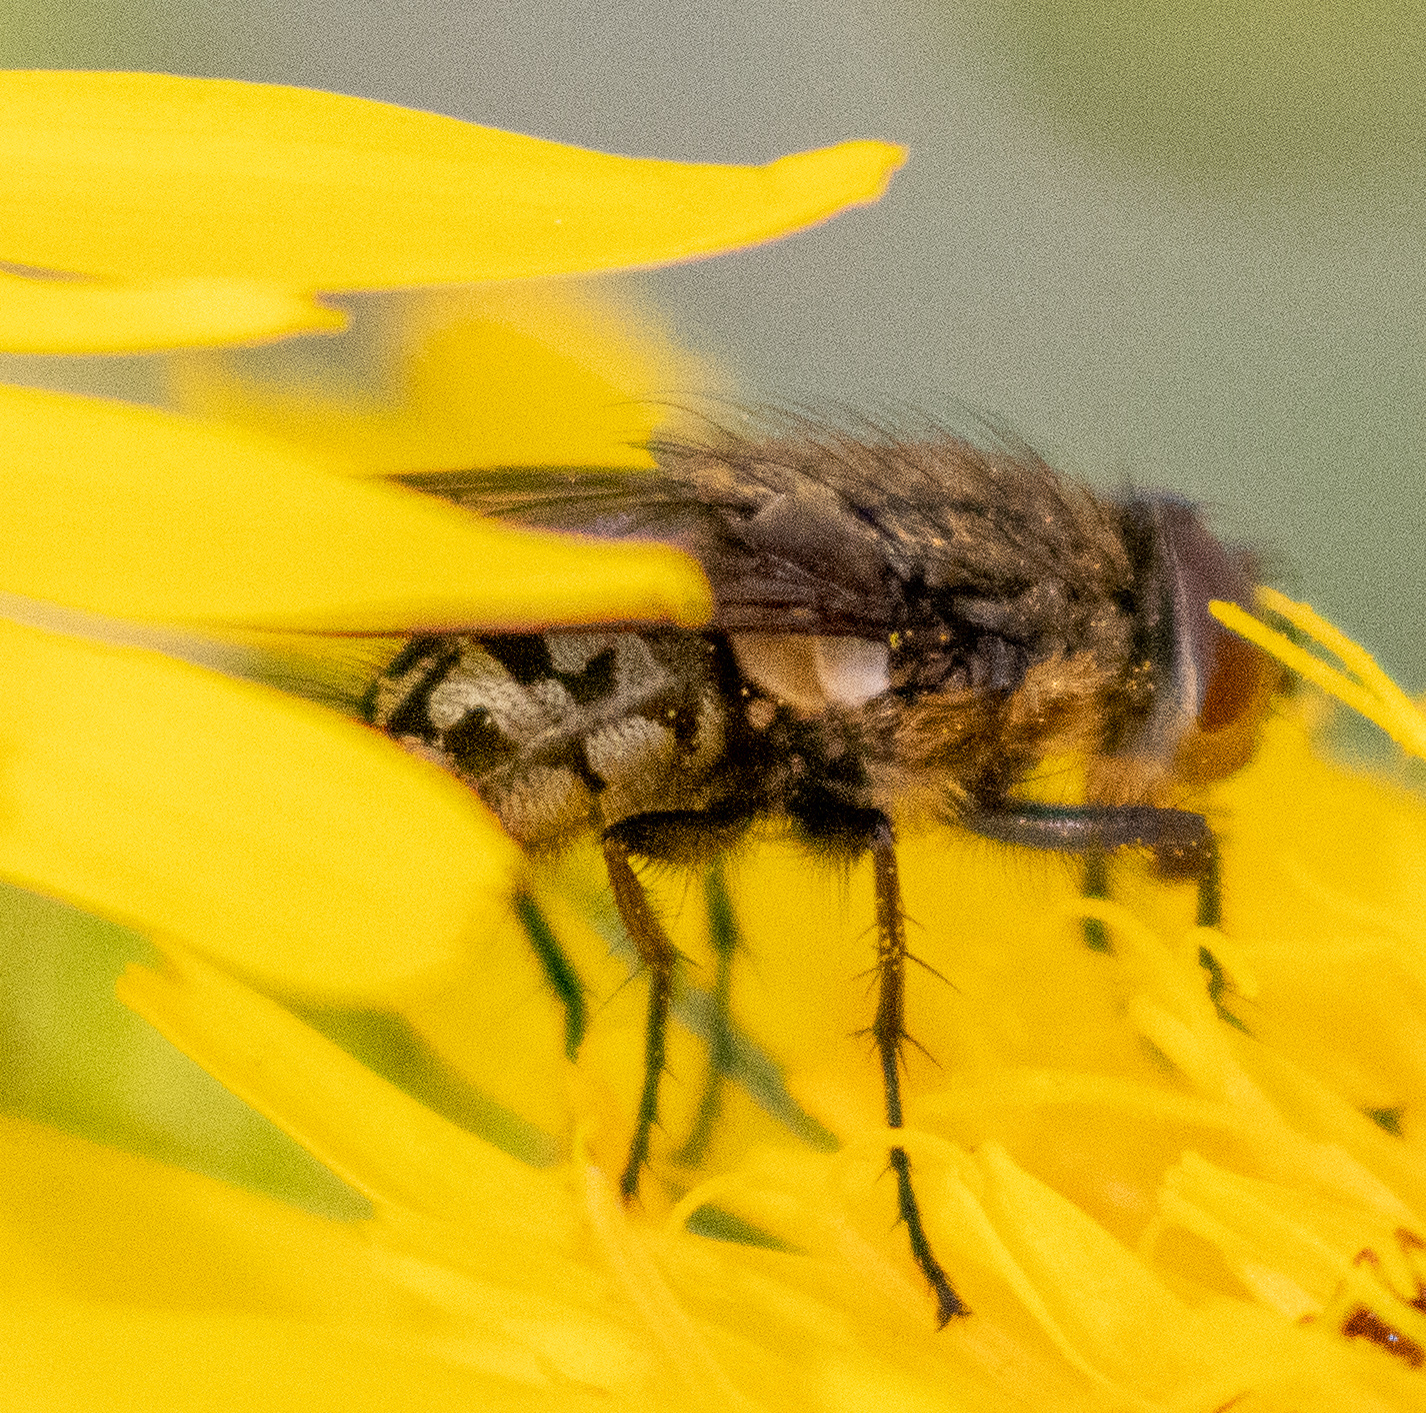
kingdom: Animalia
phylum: Arthropoda
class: Insecta
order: Diptera
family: Polleniidae
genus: Pollenia
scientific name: Pollenia
